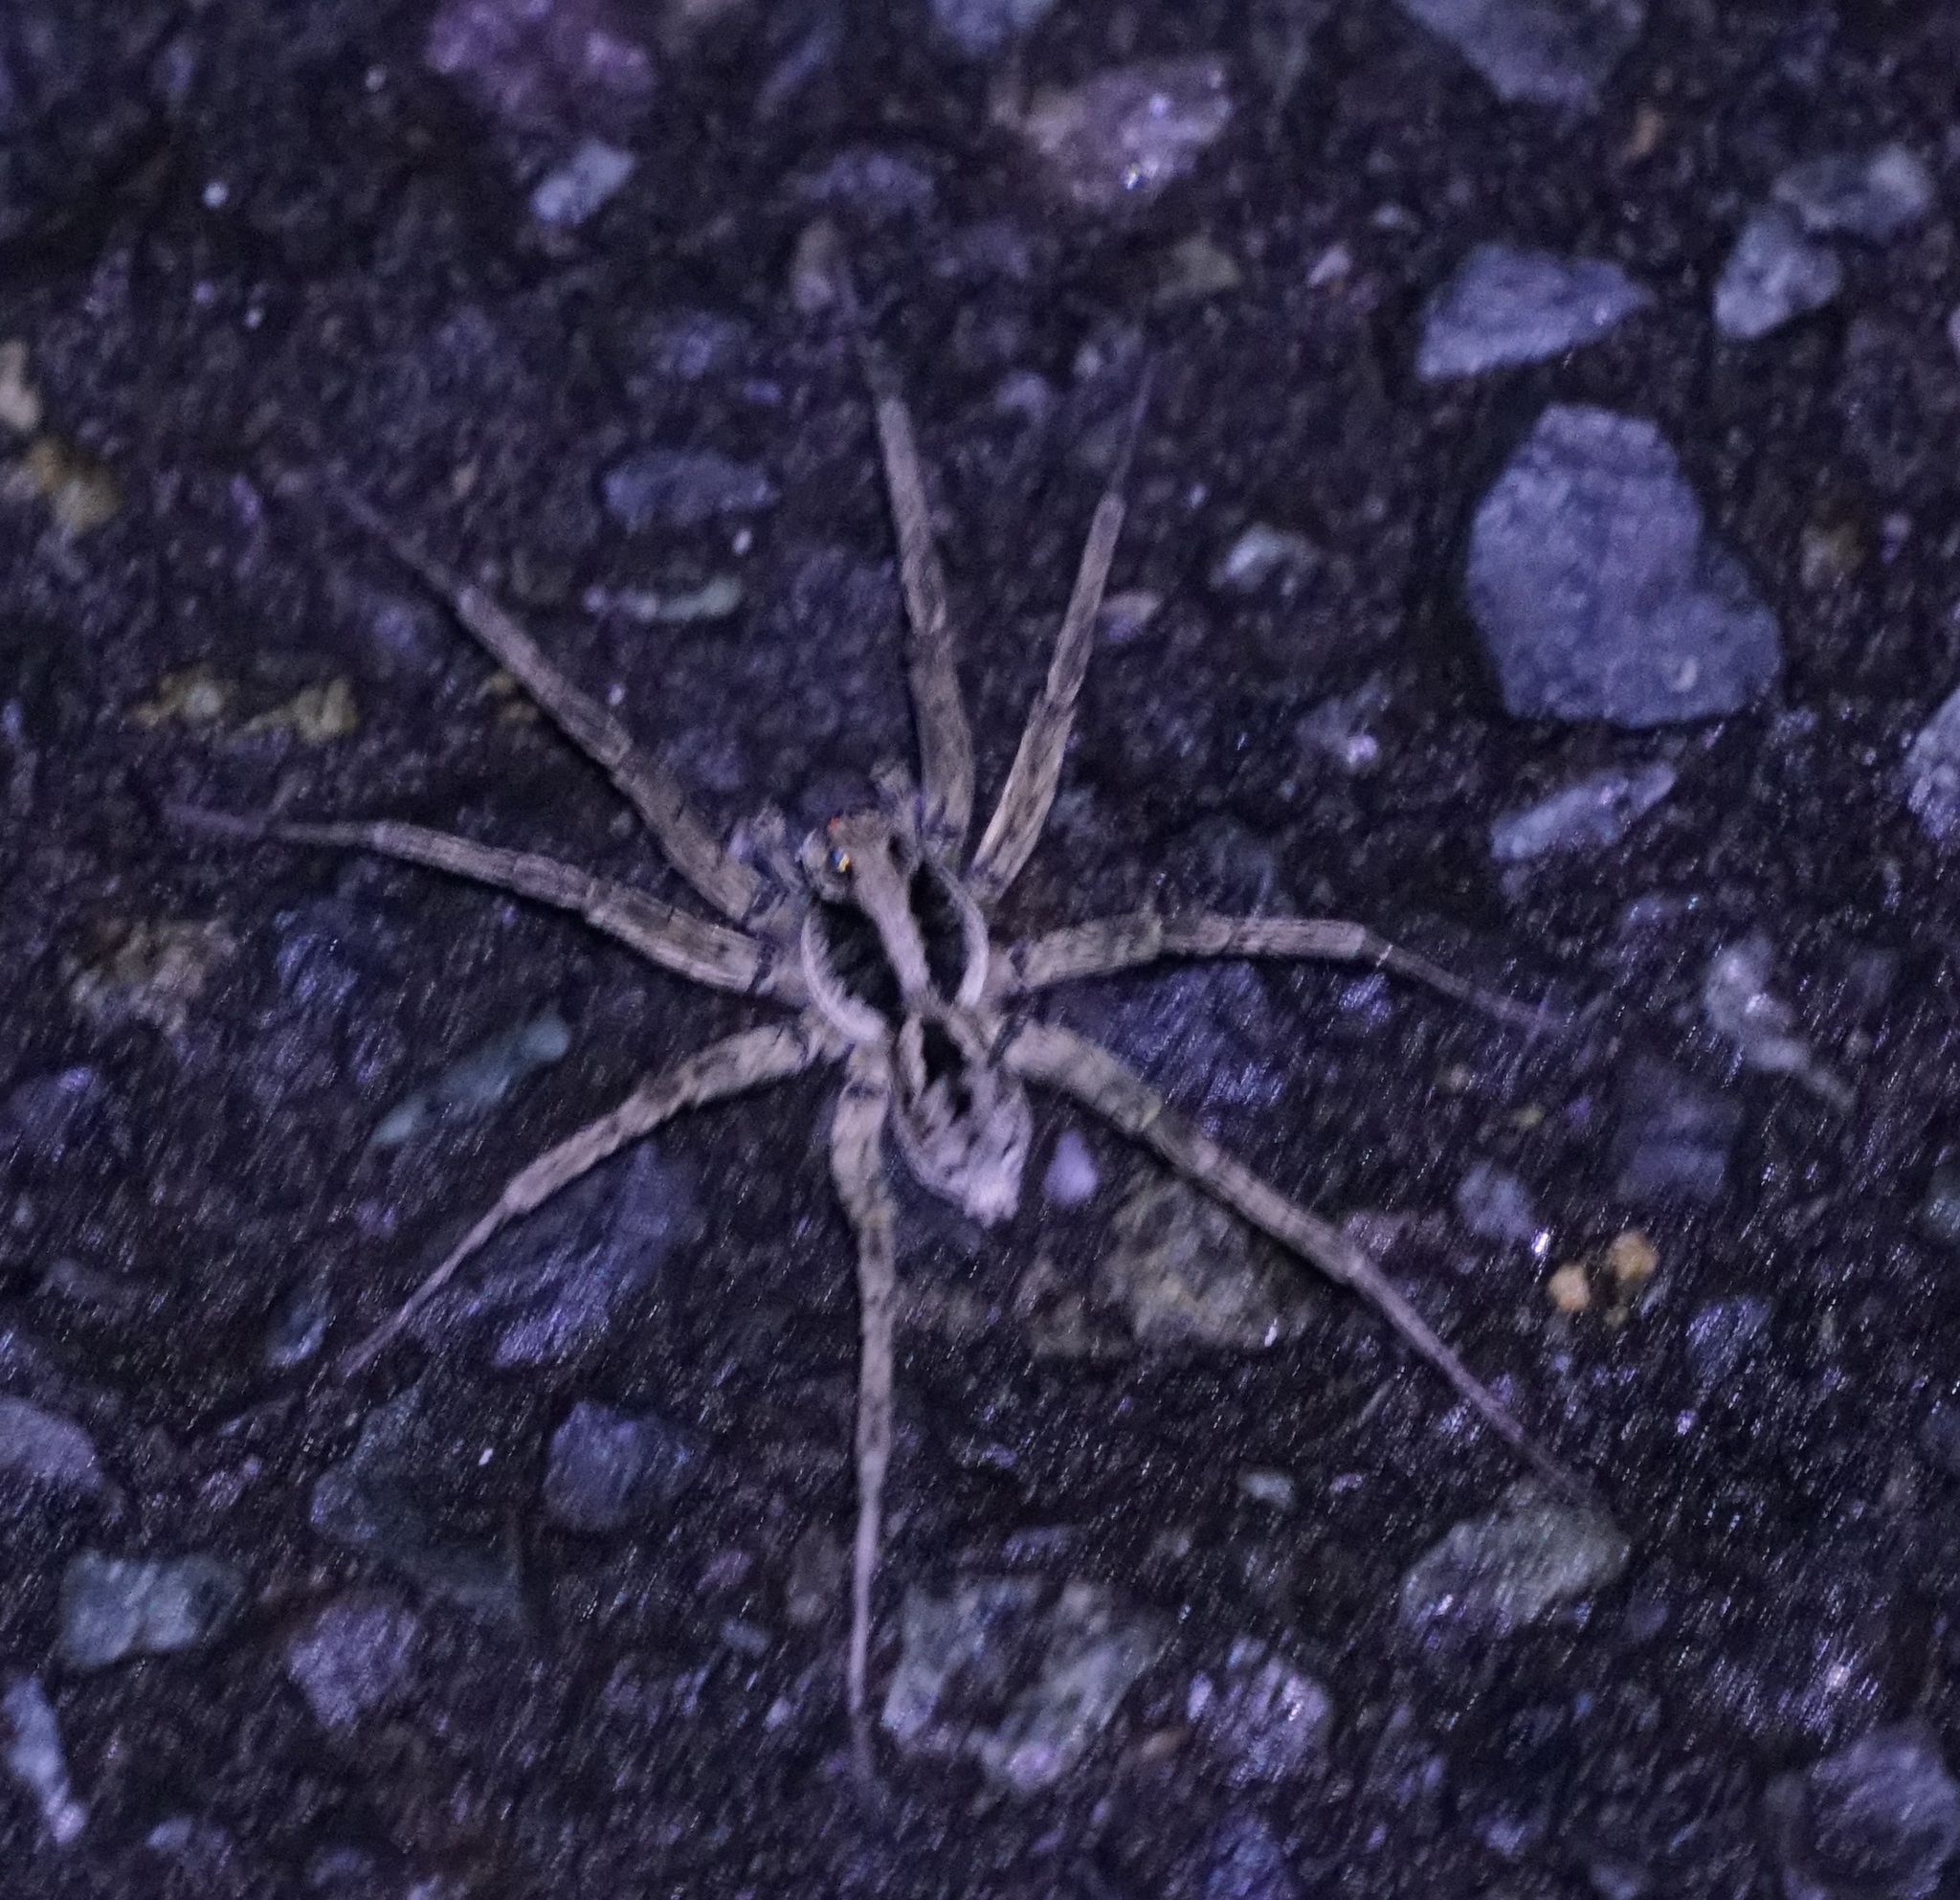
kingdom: Animalia
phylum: Arthropoda
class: Arachnida
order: Araneae
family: Lycosidae
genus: Venator
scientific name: Venator spenceri
